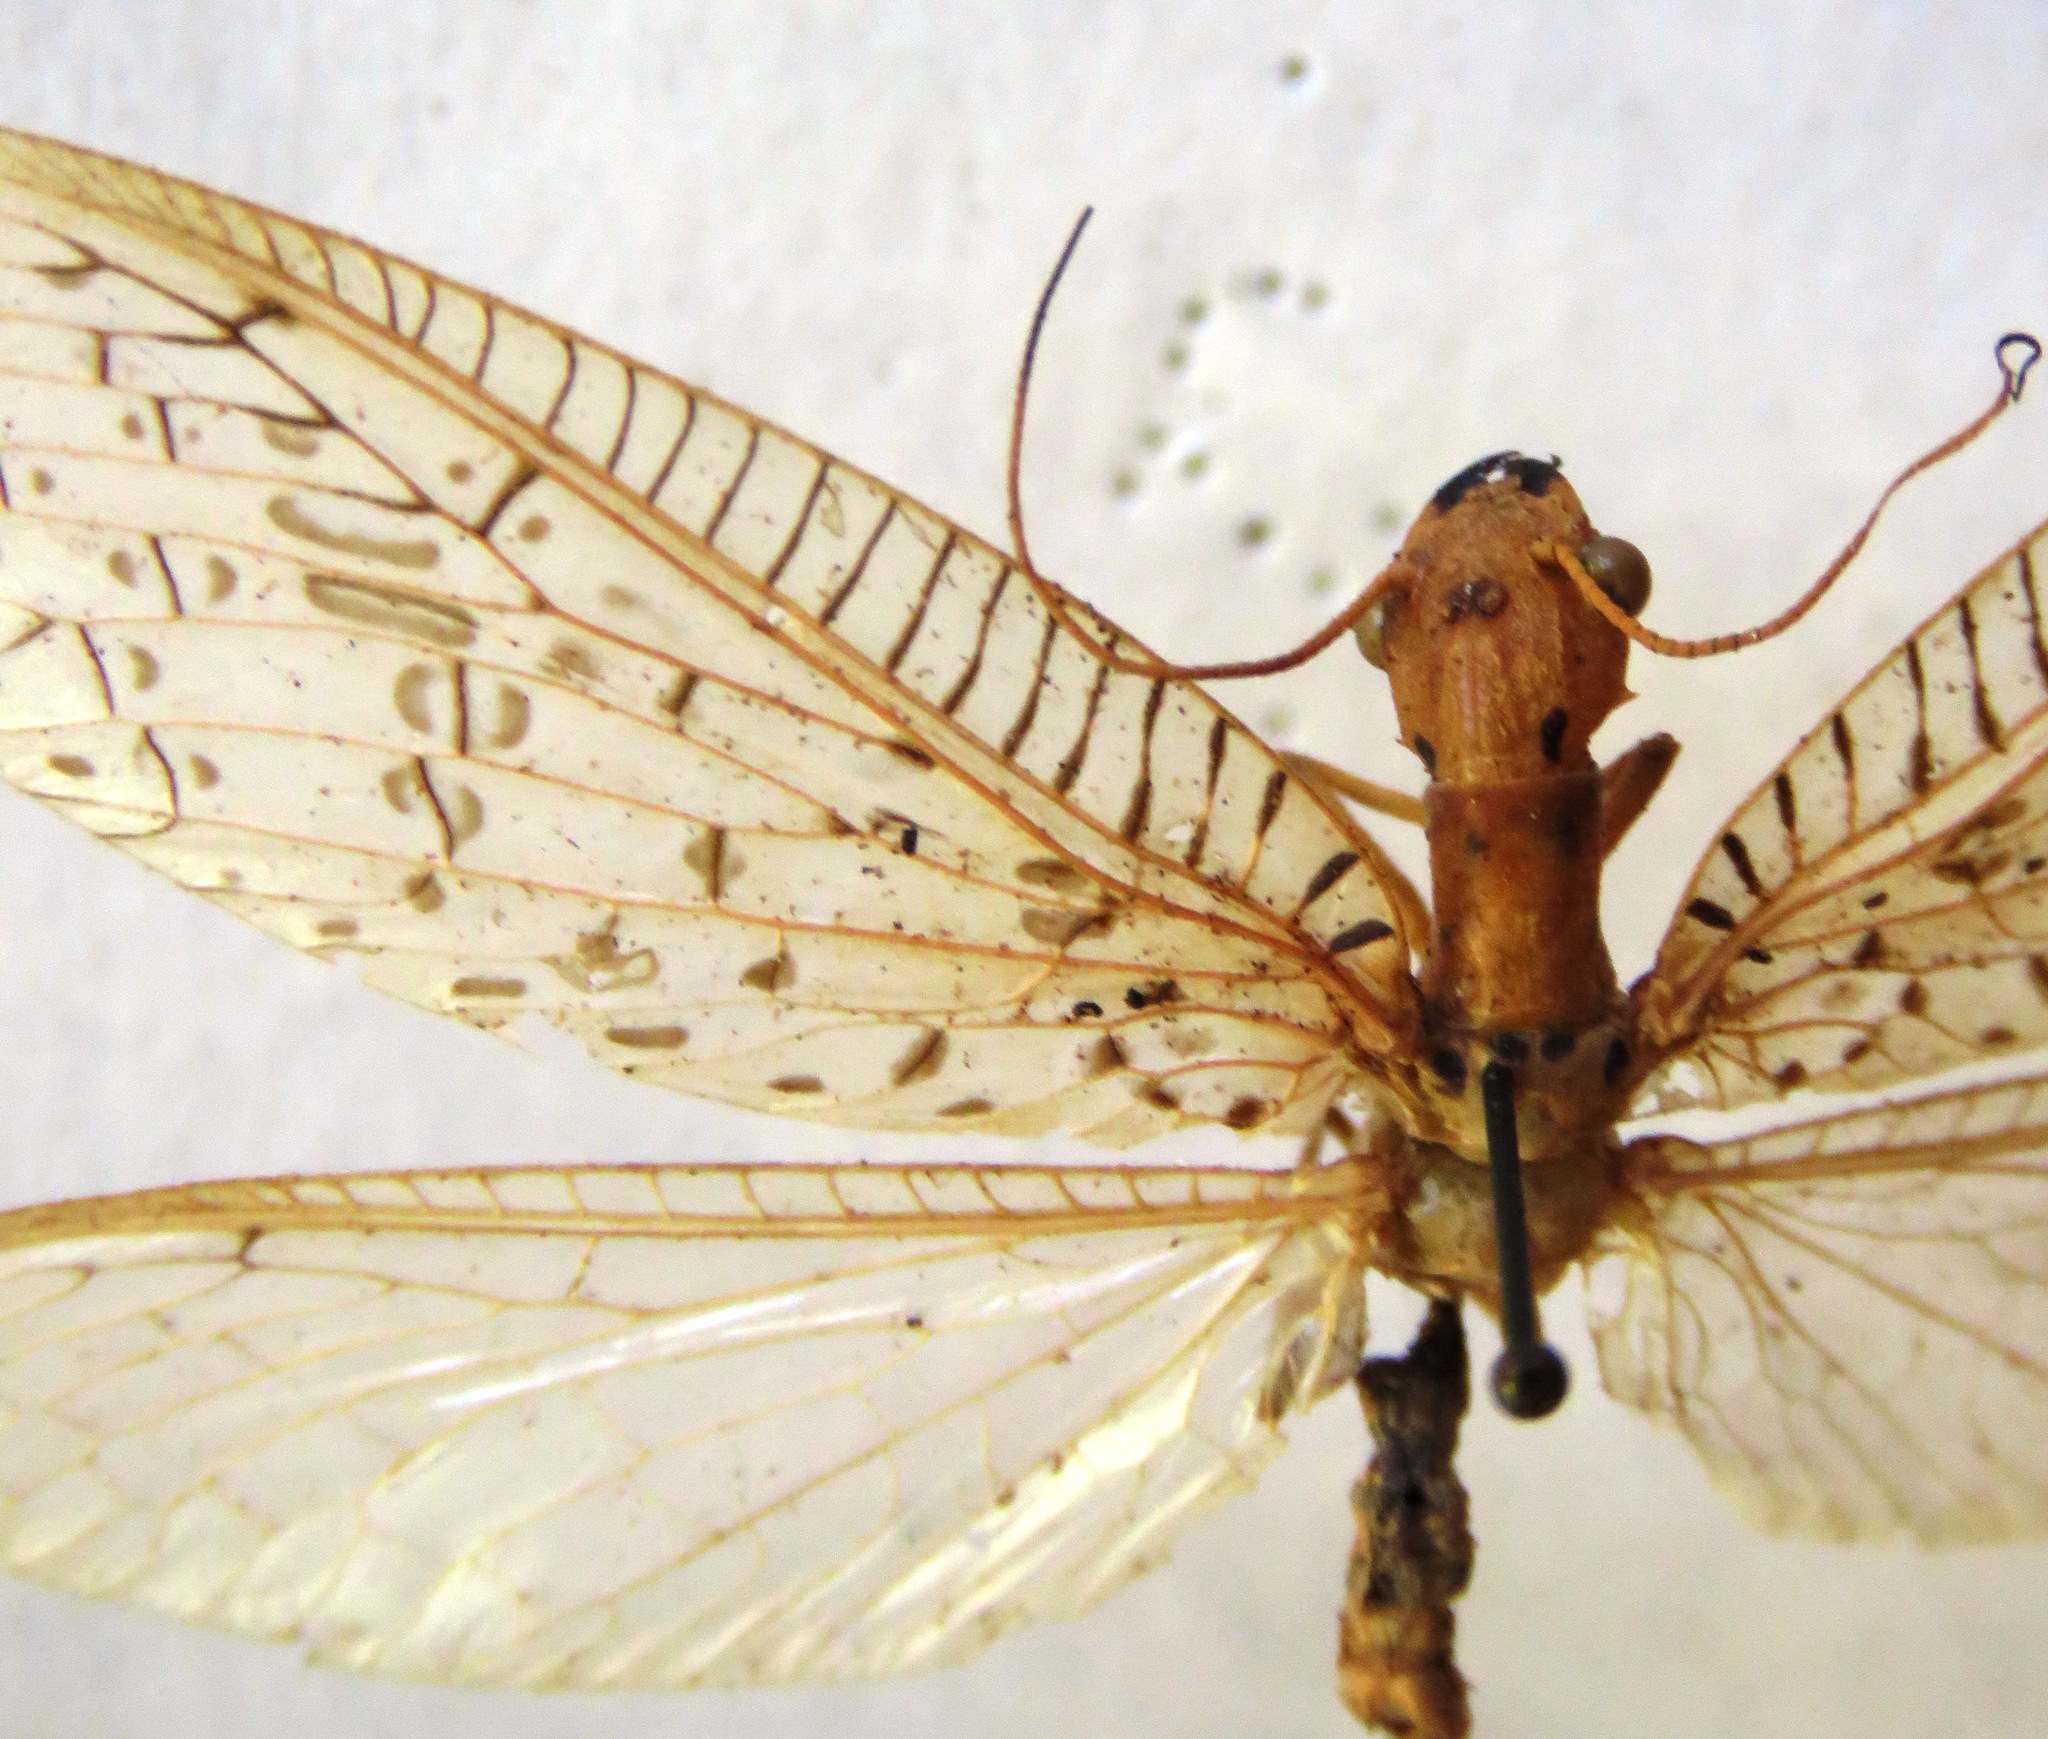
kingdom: Animalia
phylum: Arthropoda
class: Insecta
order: Megaloptera
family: Corydalidae
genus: Chloronia
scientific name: Chloronia mirifica
